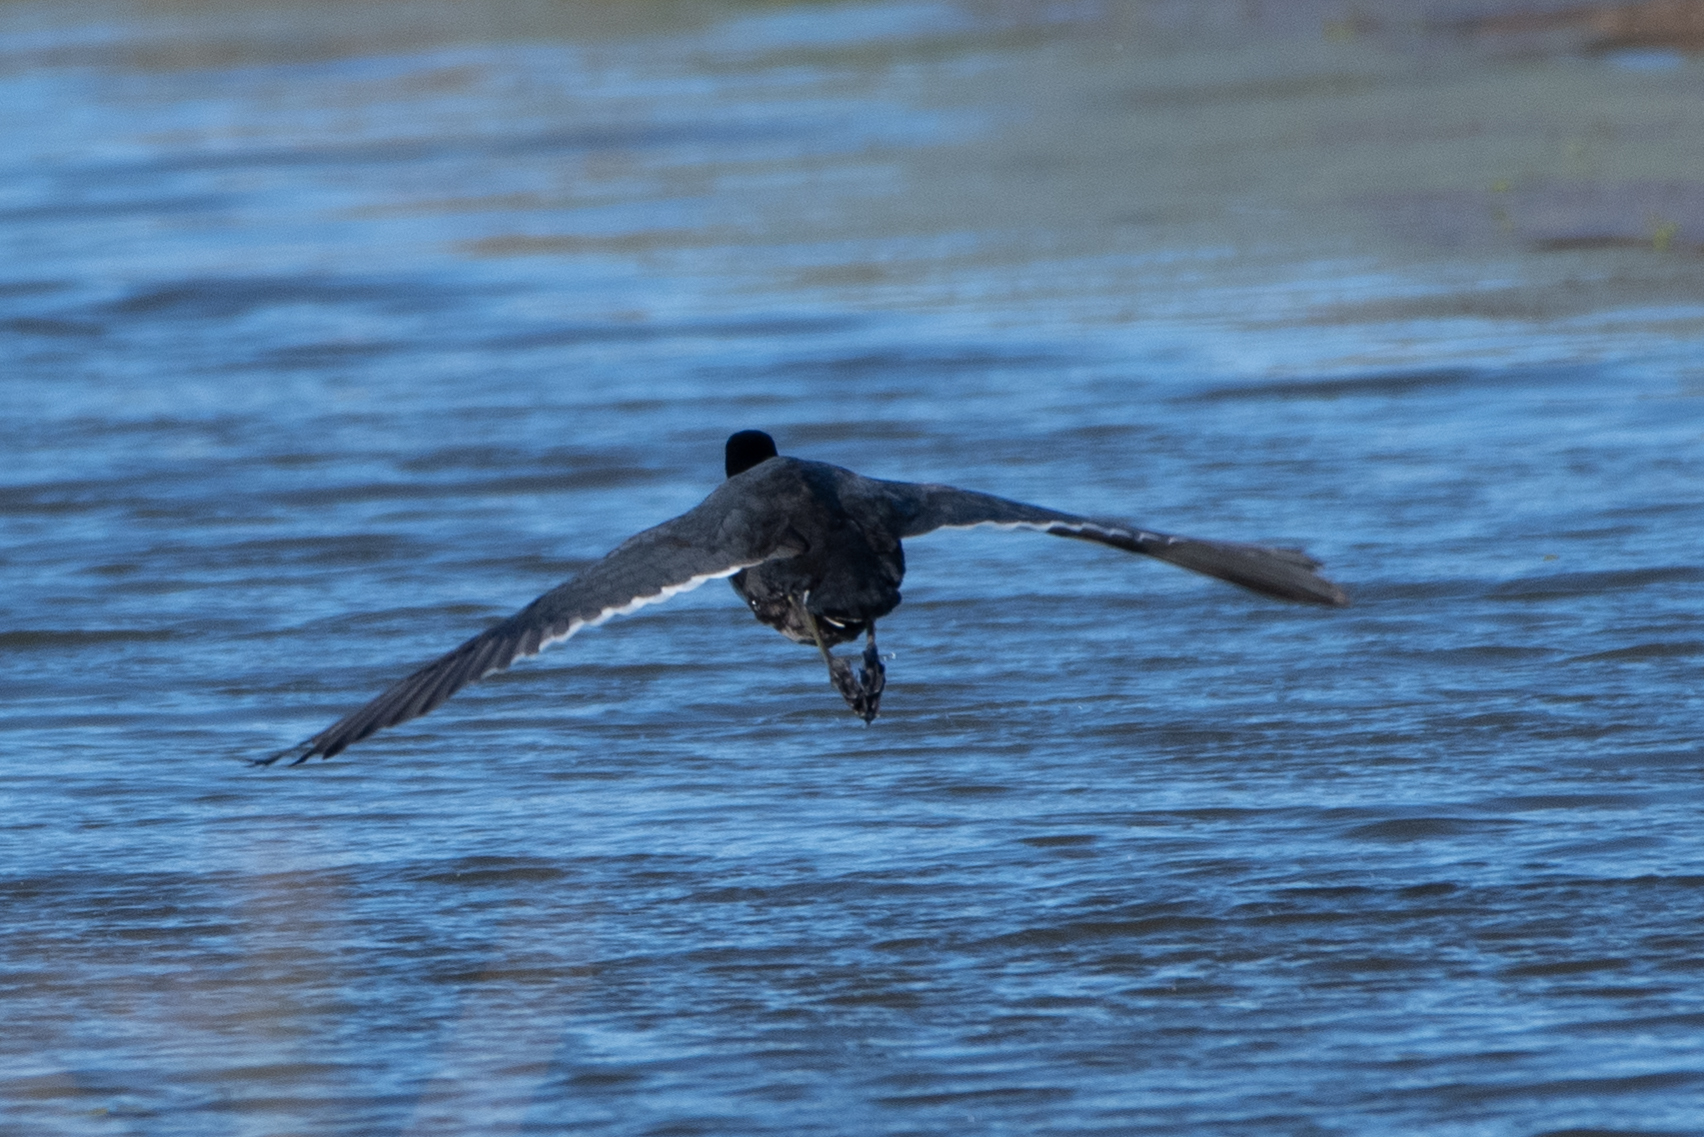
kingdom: Animalia
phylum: Chordata
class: Aves
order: Gruiformes
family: Rallidae
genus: Fulica
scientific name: Fulica americana
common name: American coot
